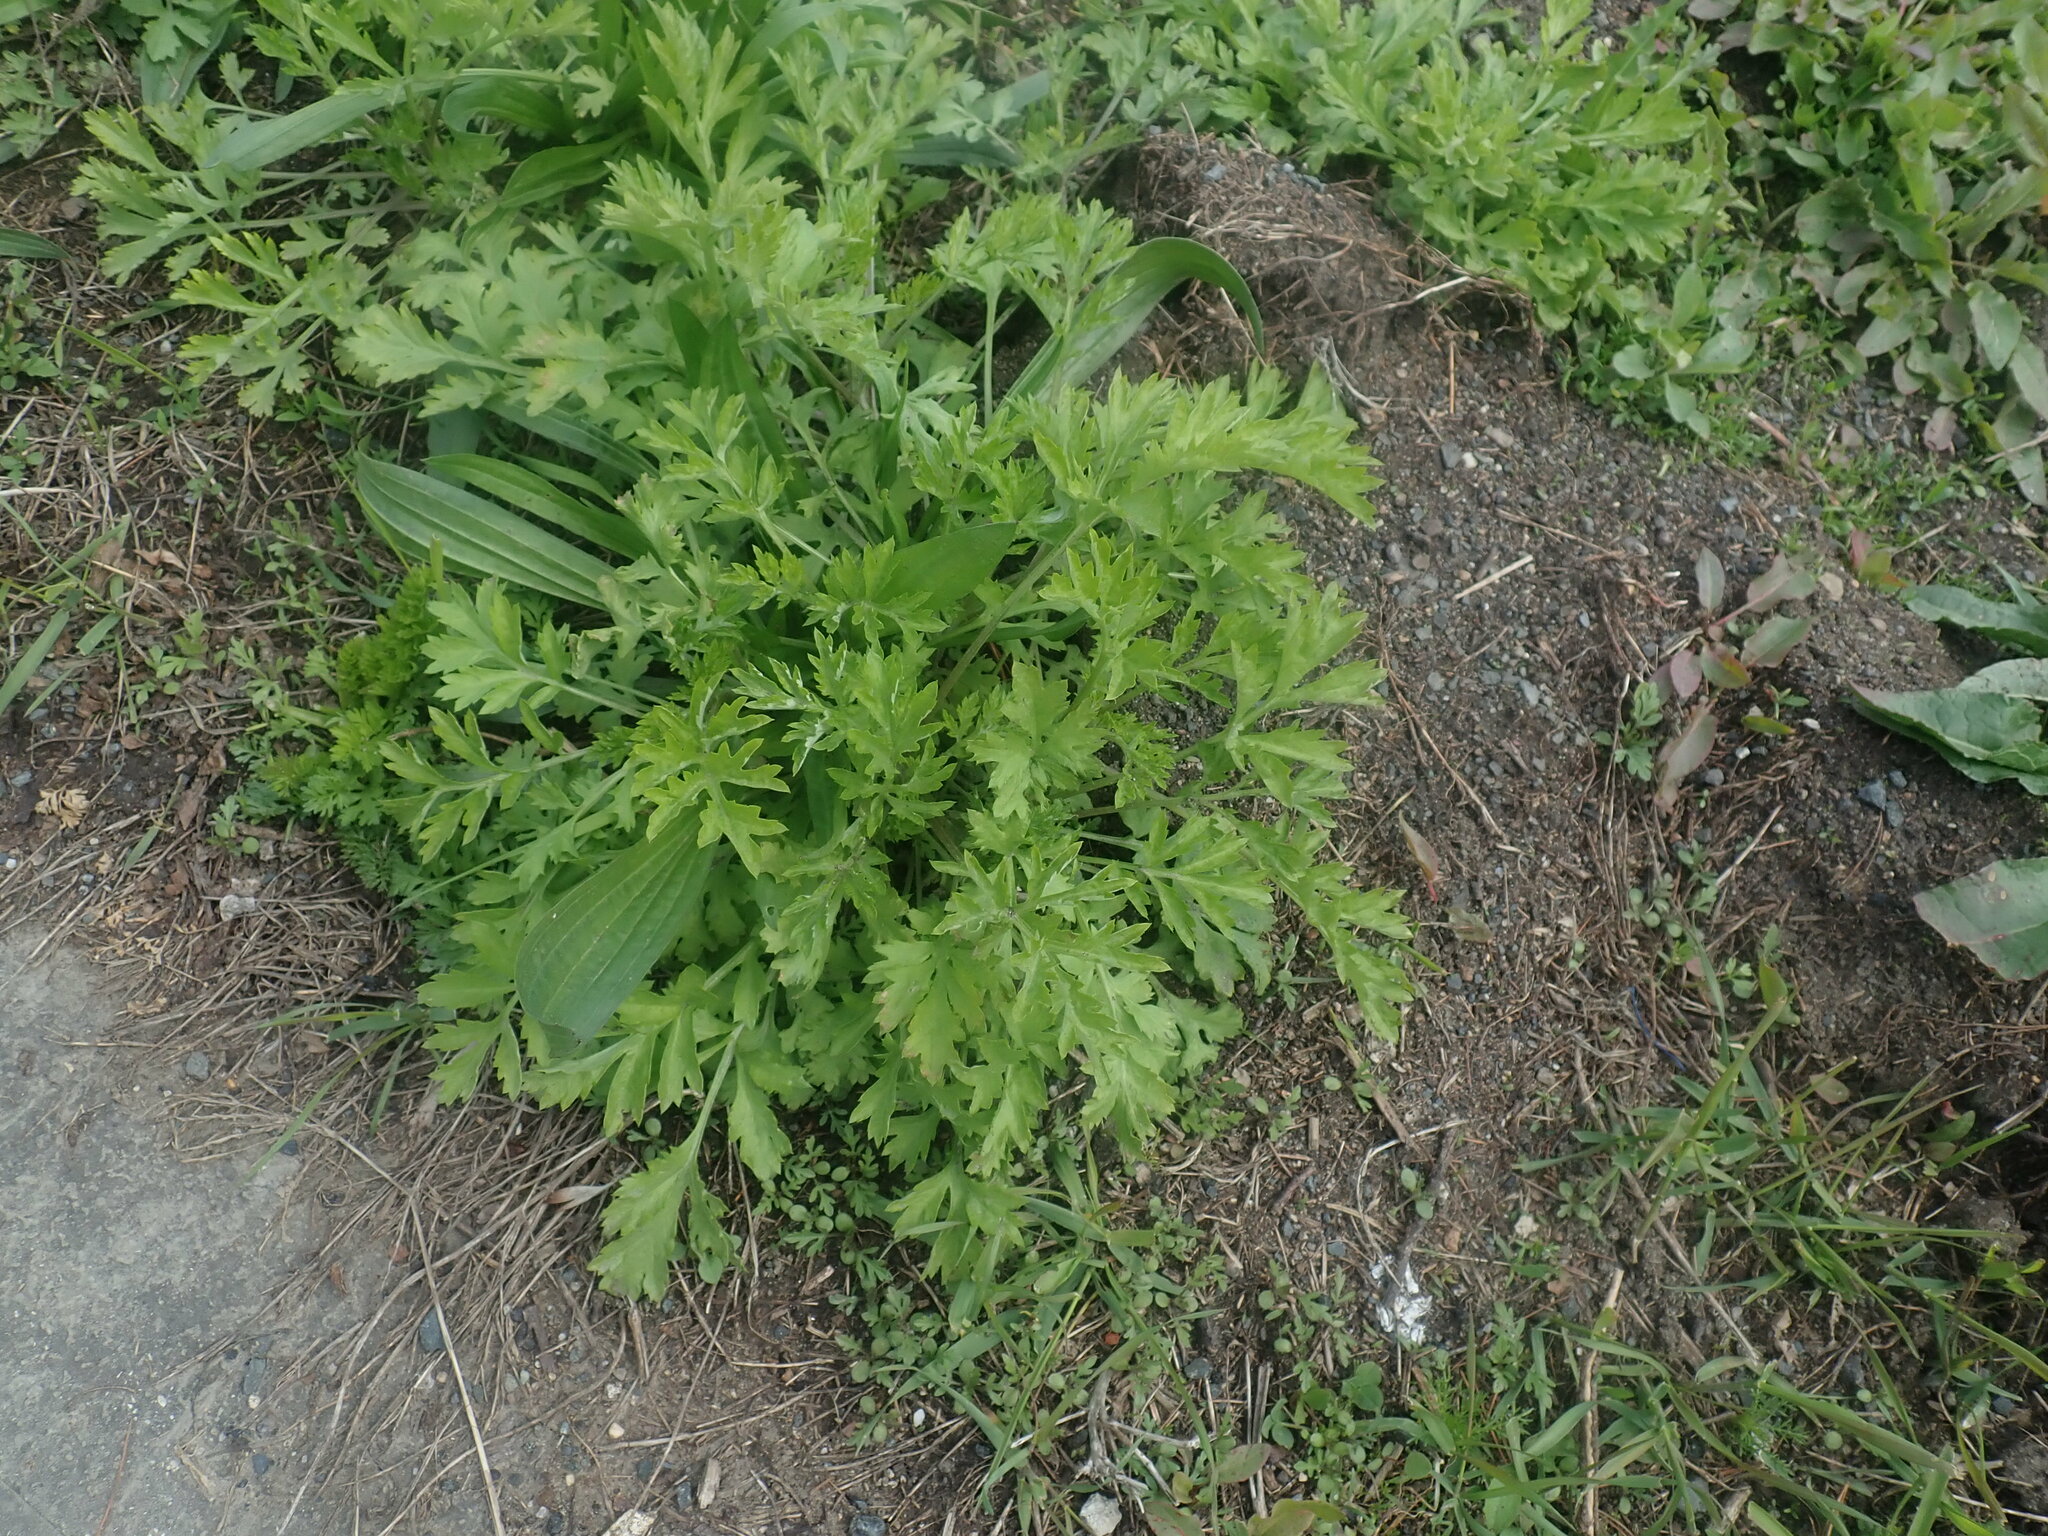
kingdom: Plantae
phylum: Tracheophyta
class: Magnoliopsida
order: Asterales
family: Asteraceae
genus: Artemisia
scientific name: Artemisia vulgaris
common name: Mugwort
